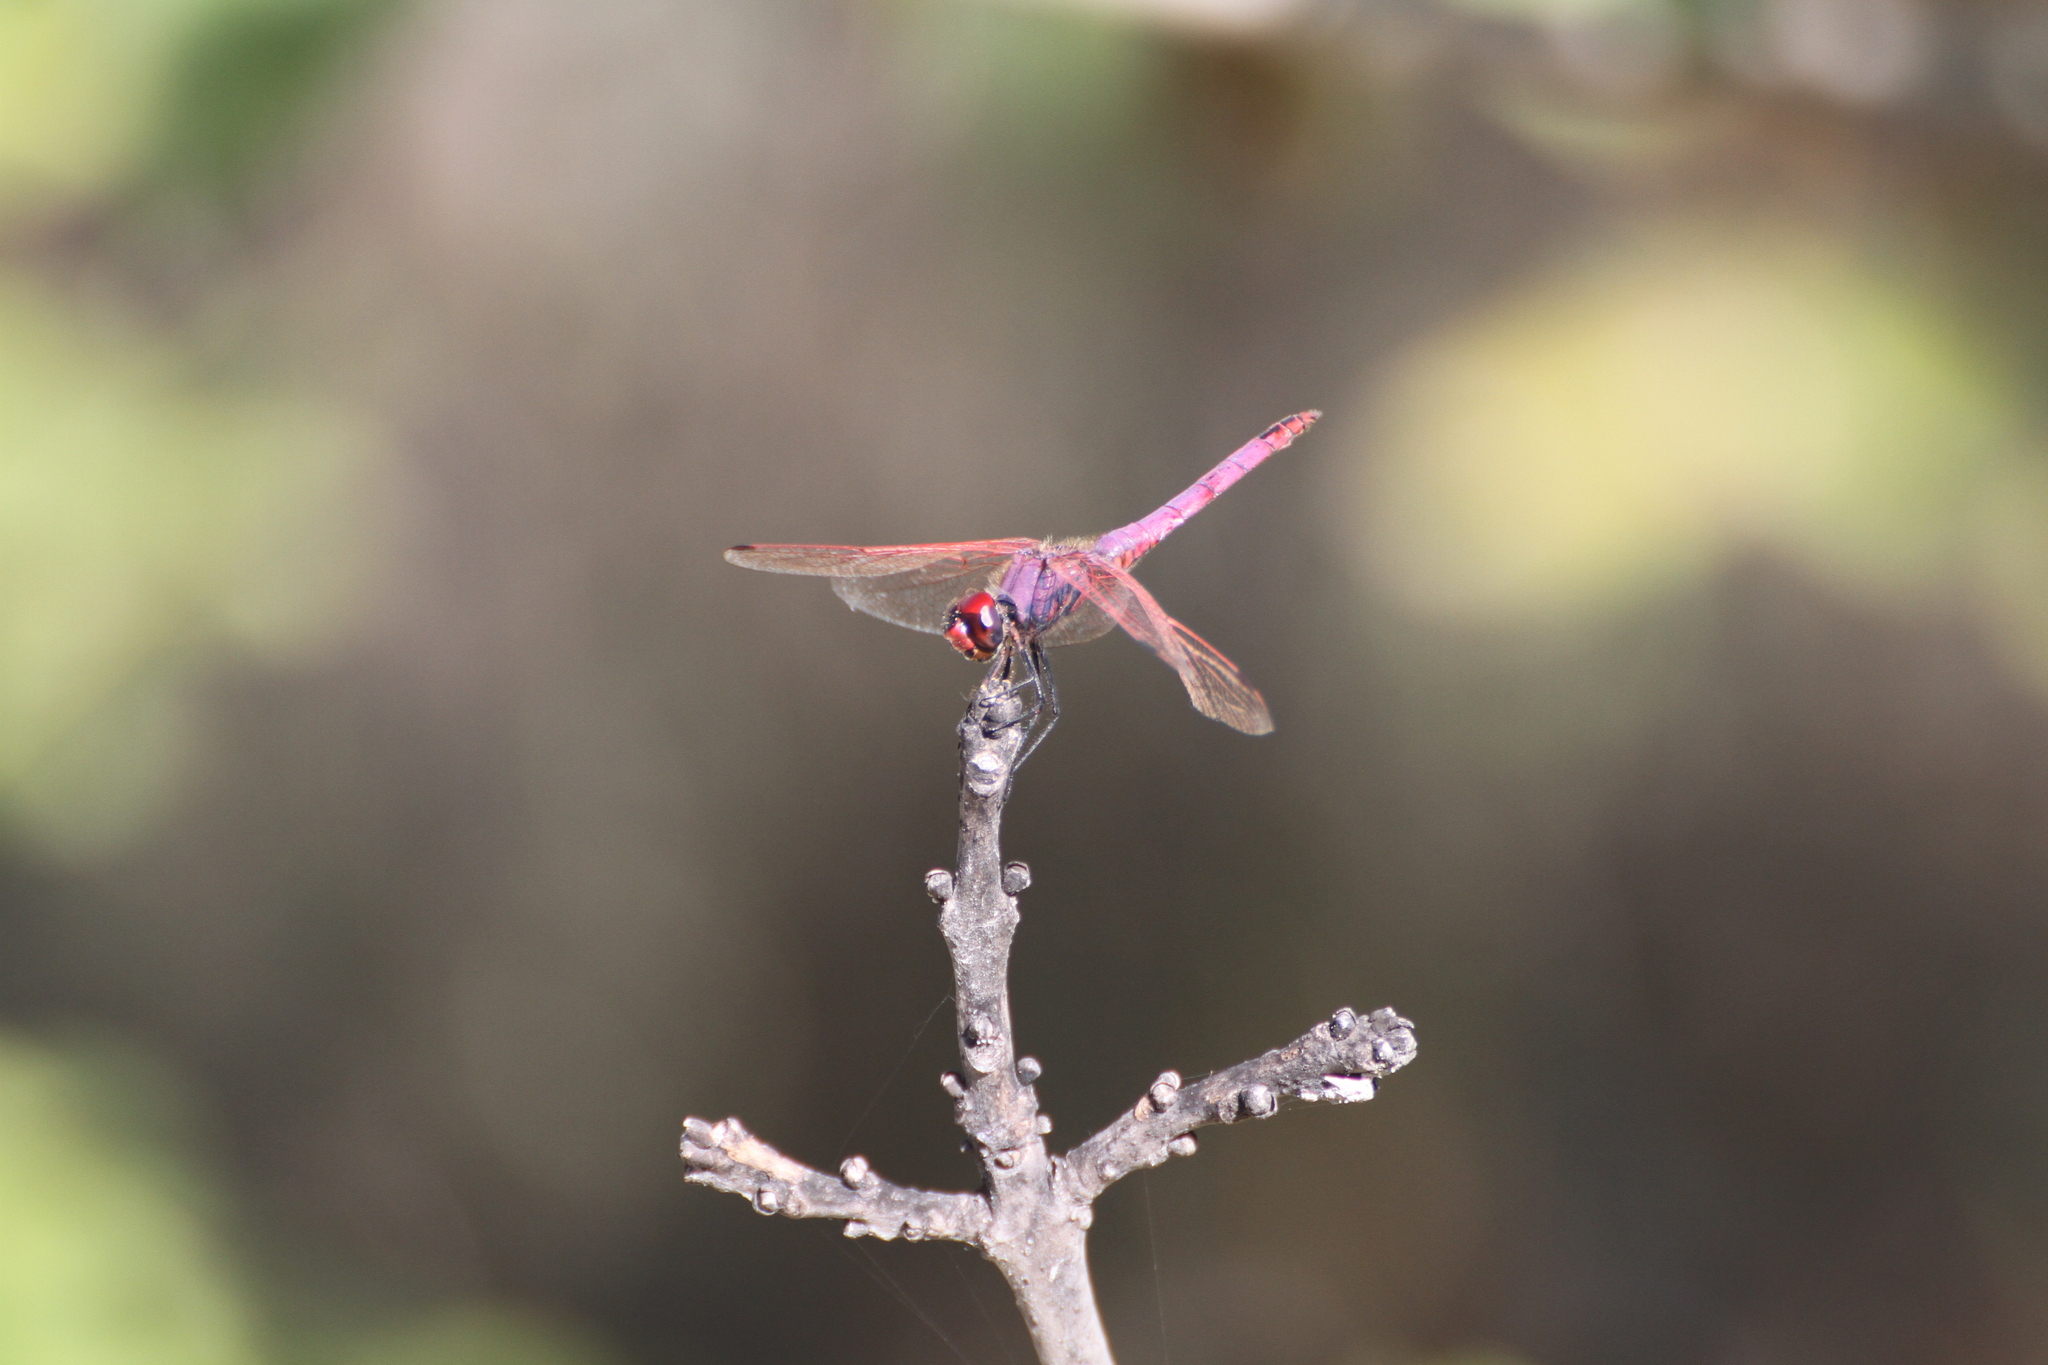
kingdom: Animalia
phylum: Arthropoda
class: Insecta
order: Odonata
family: Libellulidae
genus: Trithemis
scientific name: Trithemis annulata
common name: Violet dropwing
